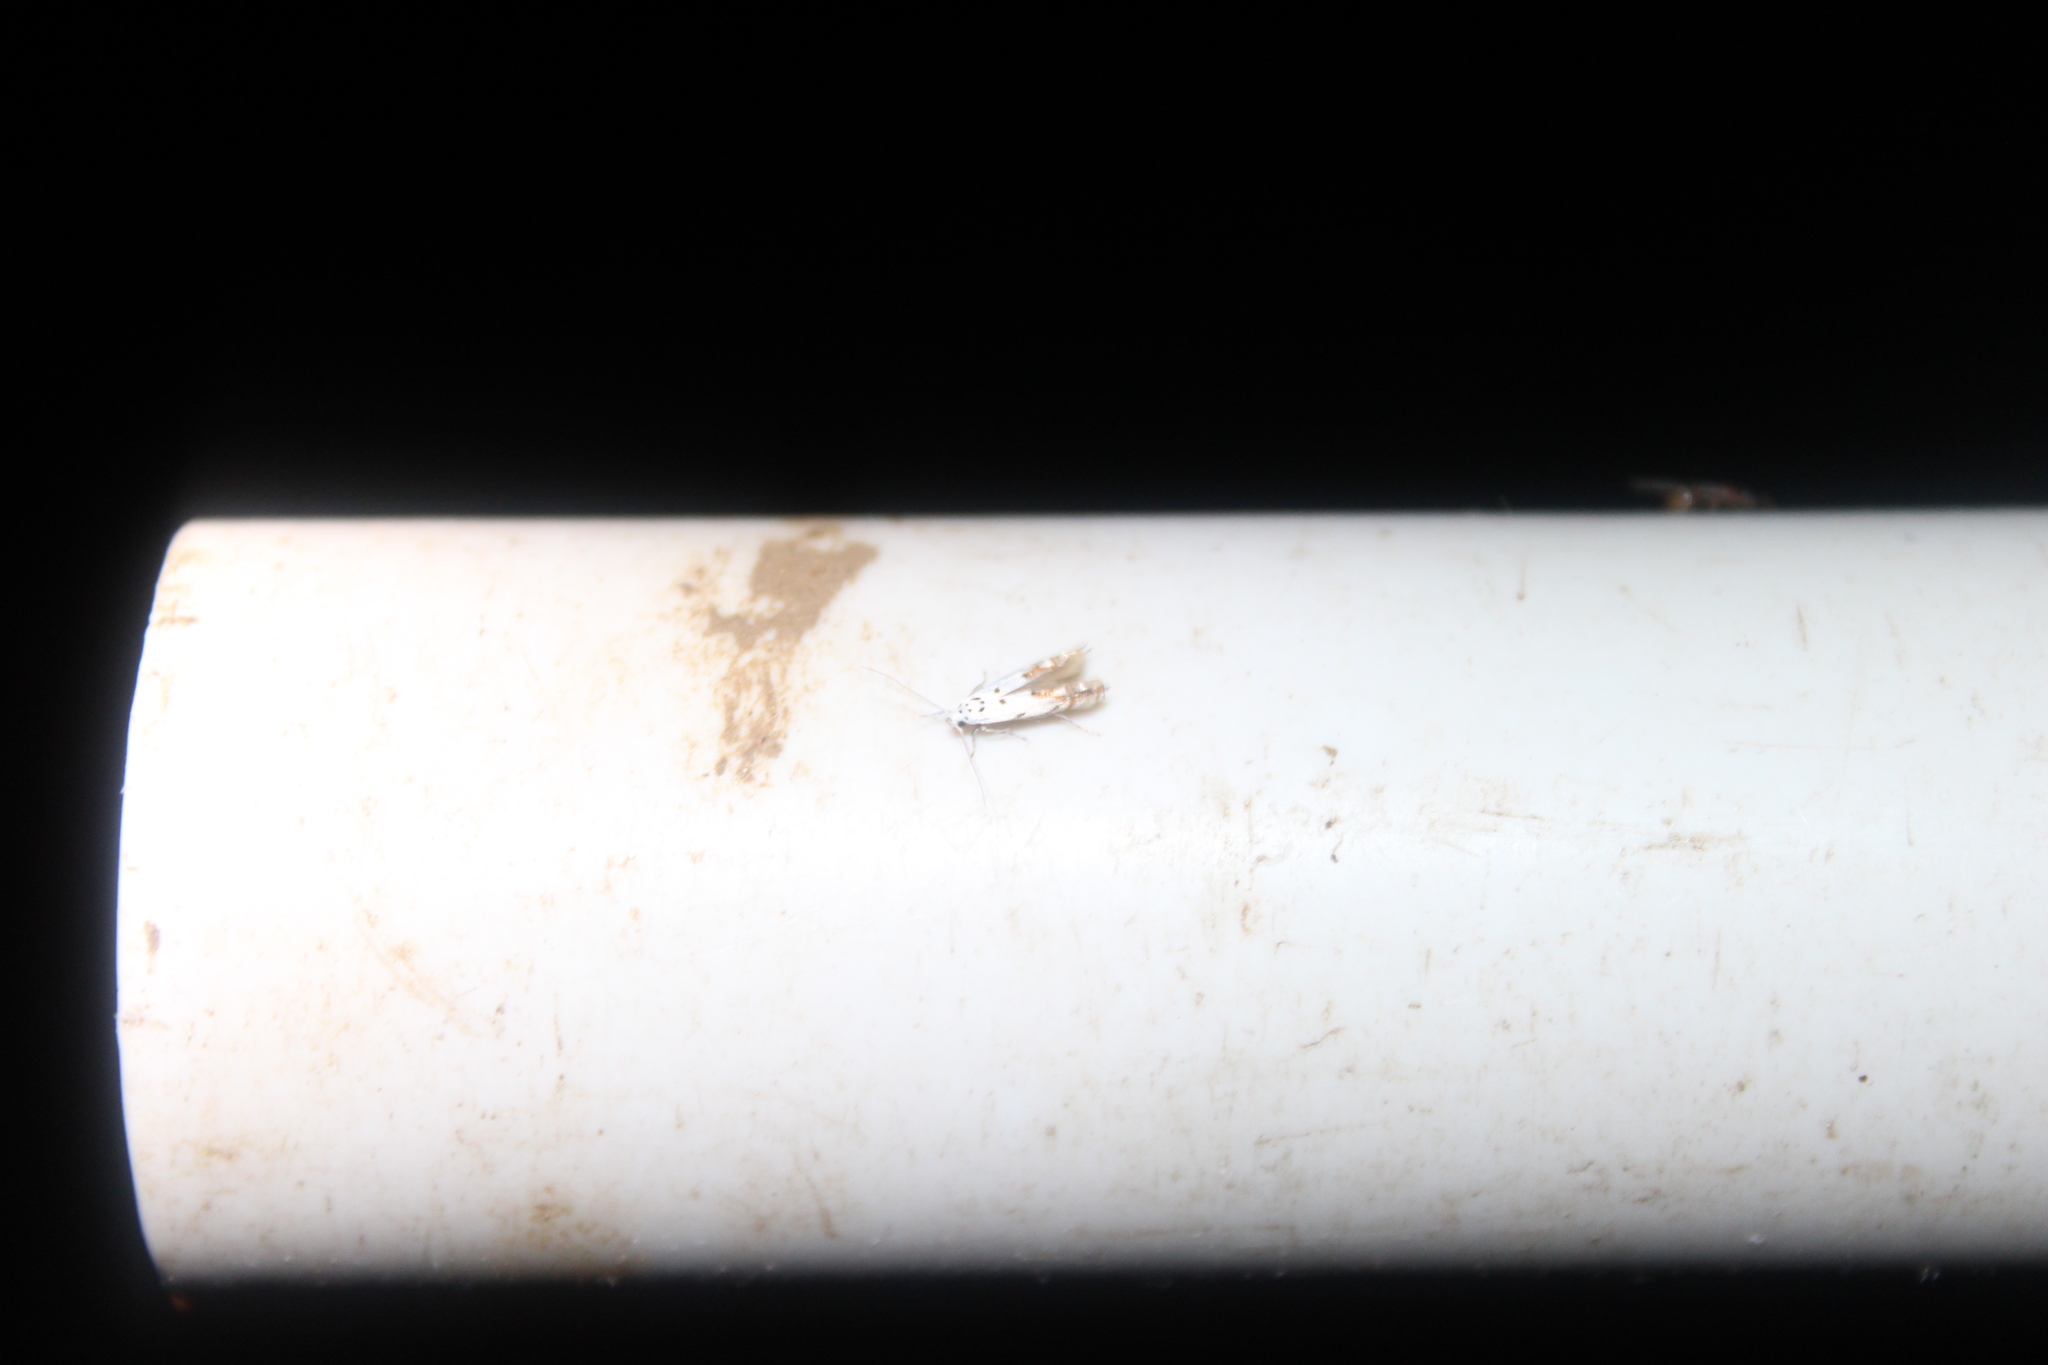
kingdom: Animalia
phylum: Arthropoda
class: Insecta
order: Lepidoptera
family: Momphidae
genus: Mompha
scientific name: Mompha eloisella
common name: Red-streaked mompha moth
